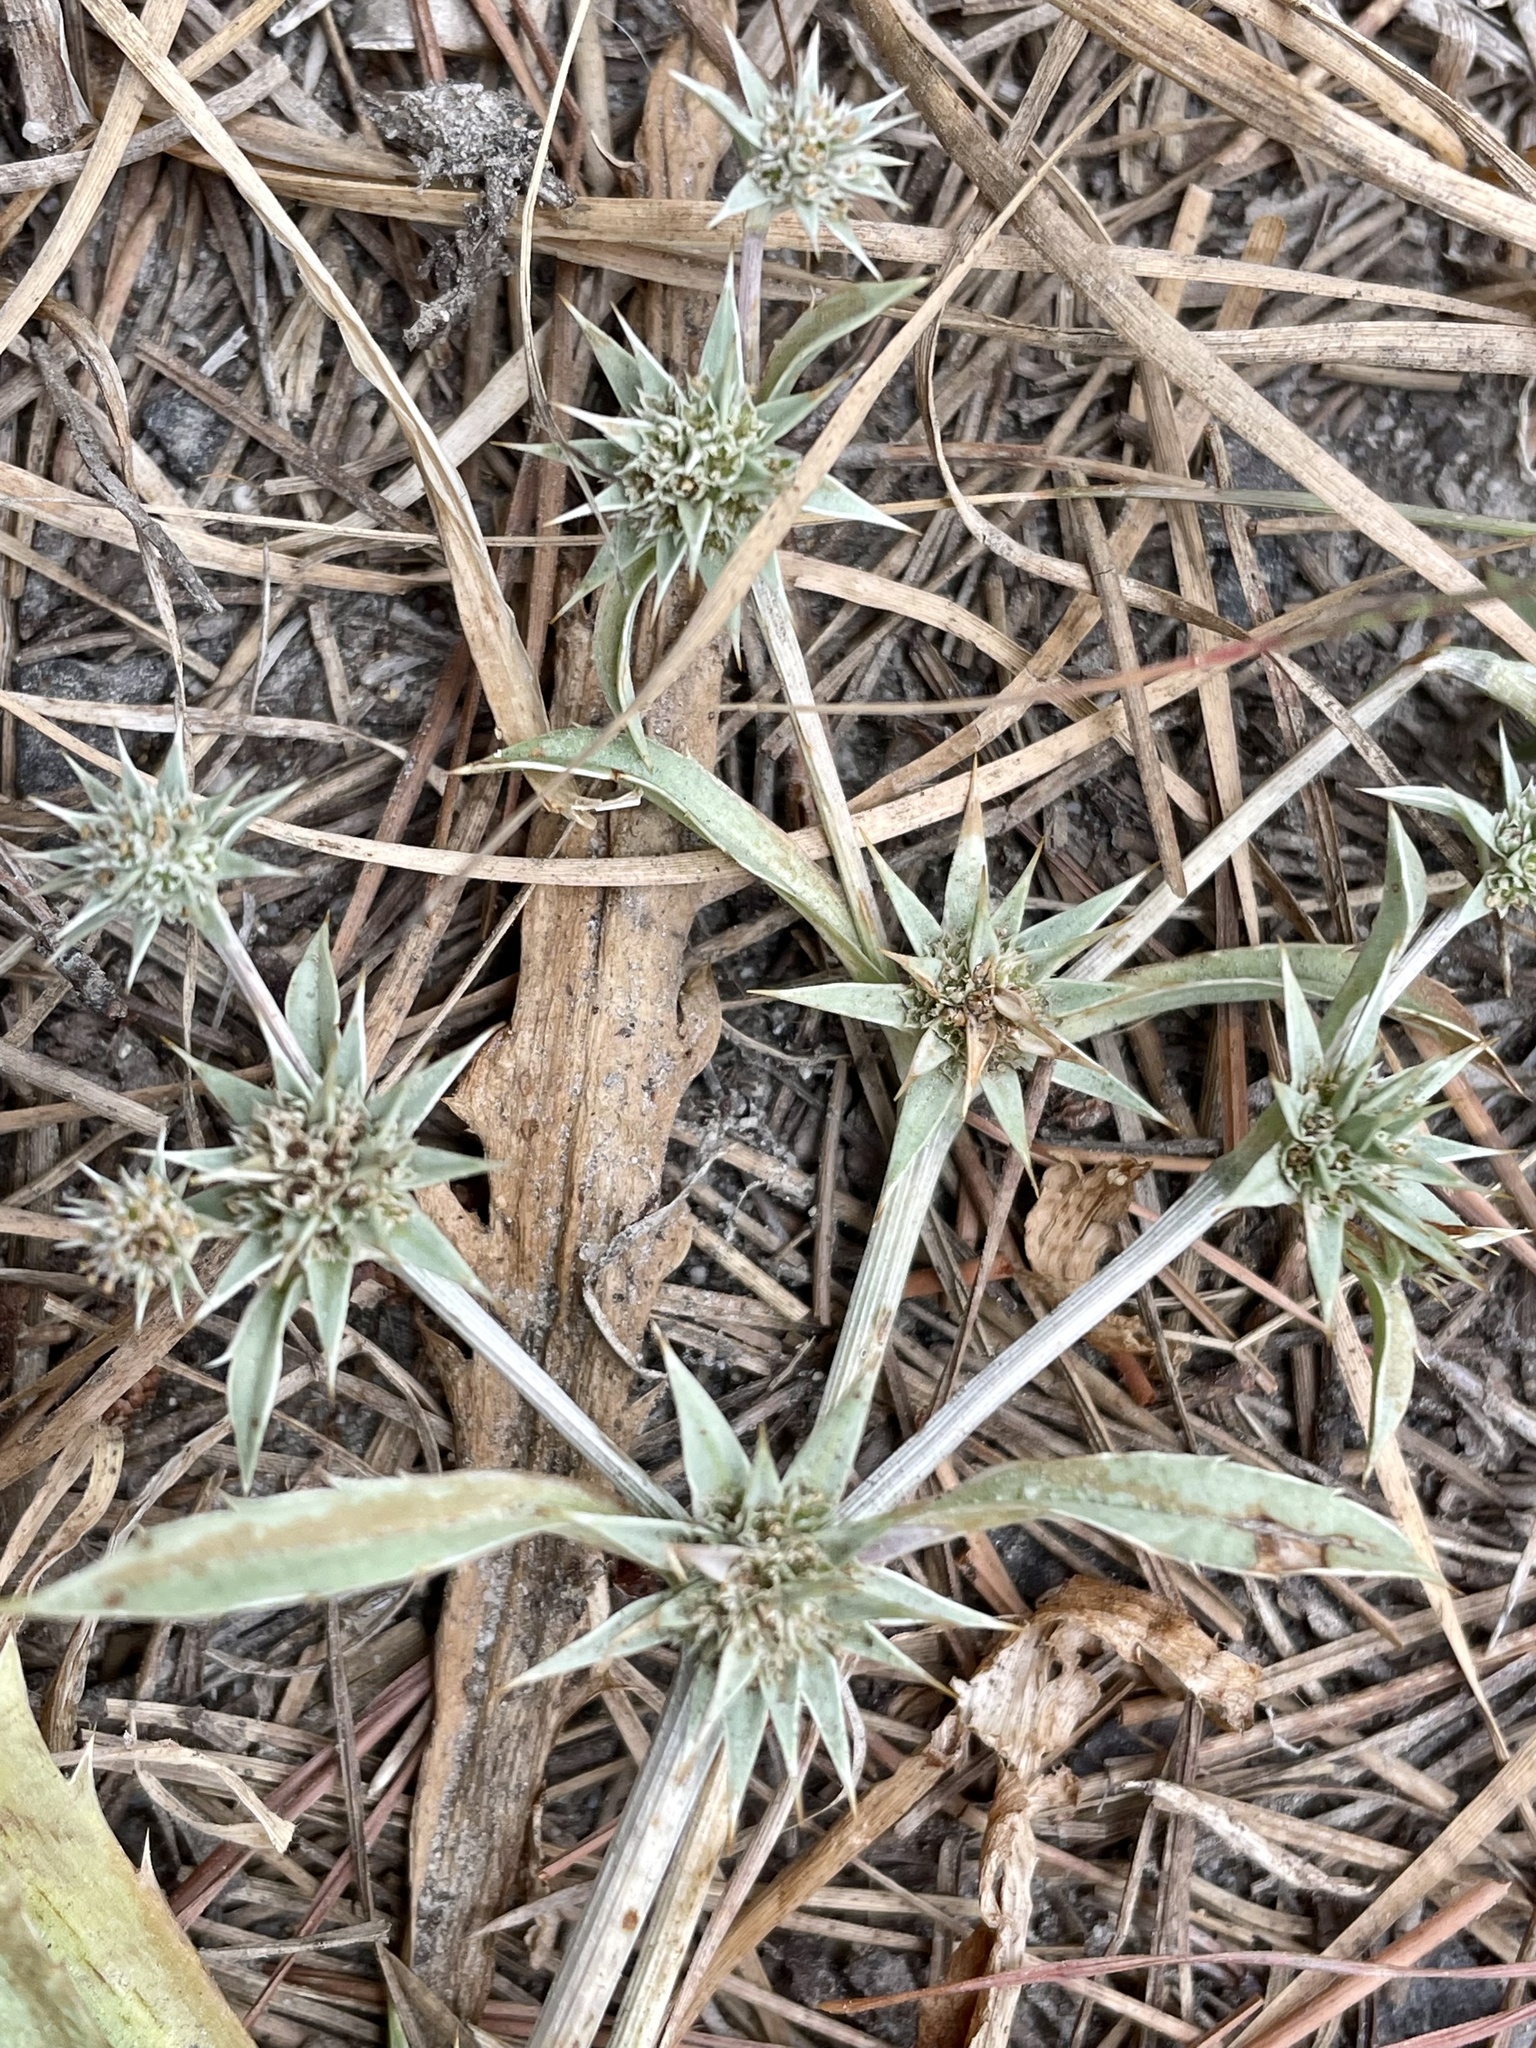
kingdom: Plantae
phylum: Tracheophyta
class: Magnoliopsida
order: Apiales
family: Apiaceae
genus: Eryngium
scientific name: Eryngium armatum
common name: Coyote thistle
